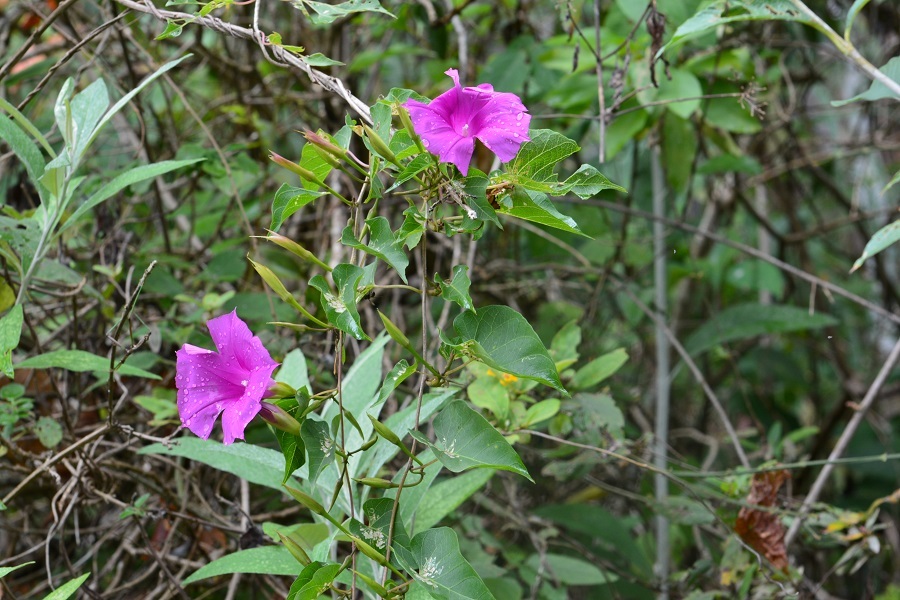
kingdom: Plantae
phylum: Tracheophyta
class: Magnoliopsida
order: Solanales
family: Convolvulaceae
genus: Ipomoea
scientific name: Ipomoea bernoulliana
